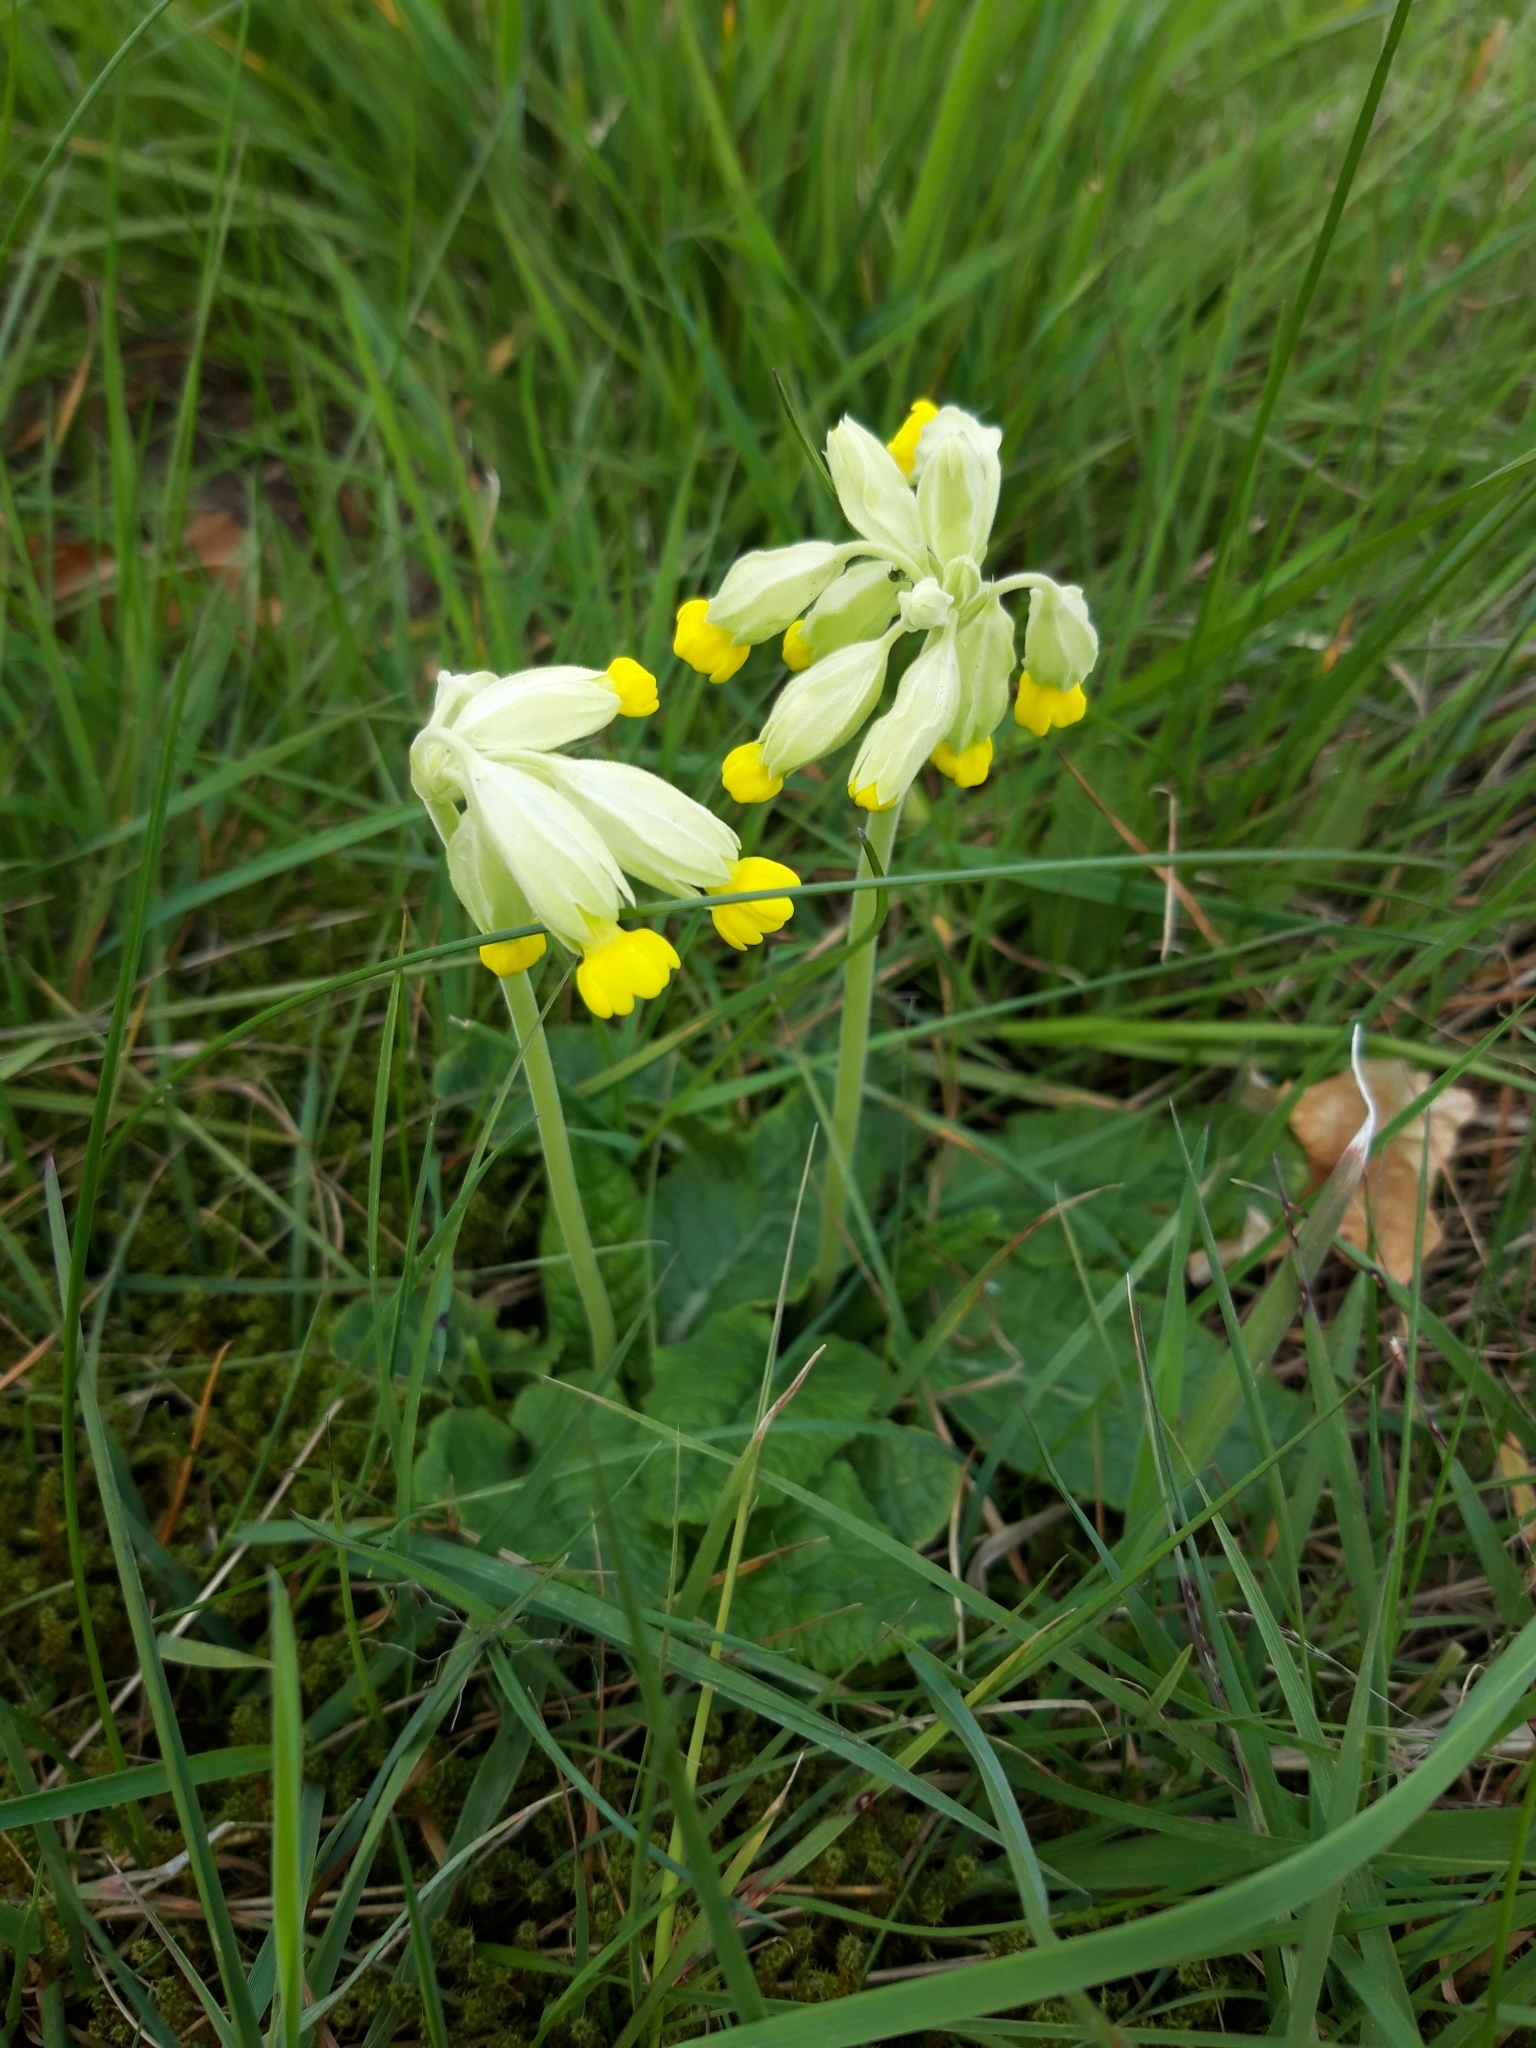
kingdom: Plantae
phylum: Tracheophyta
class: Magnoliopsida
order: Ericales
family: Primulaceae
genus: Primula
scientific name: Primula veris
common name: Cowslip
